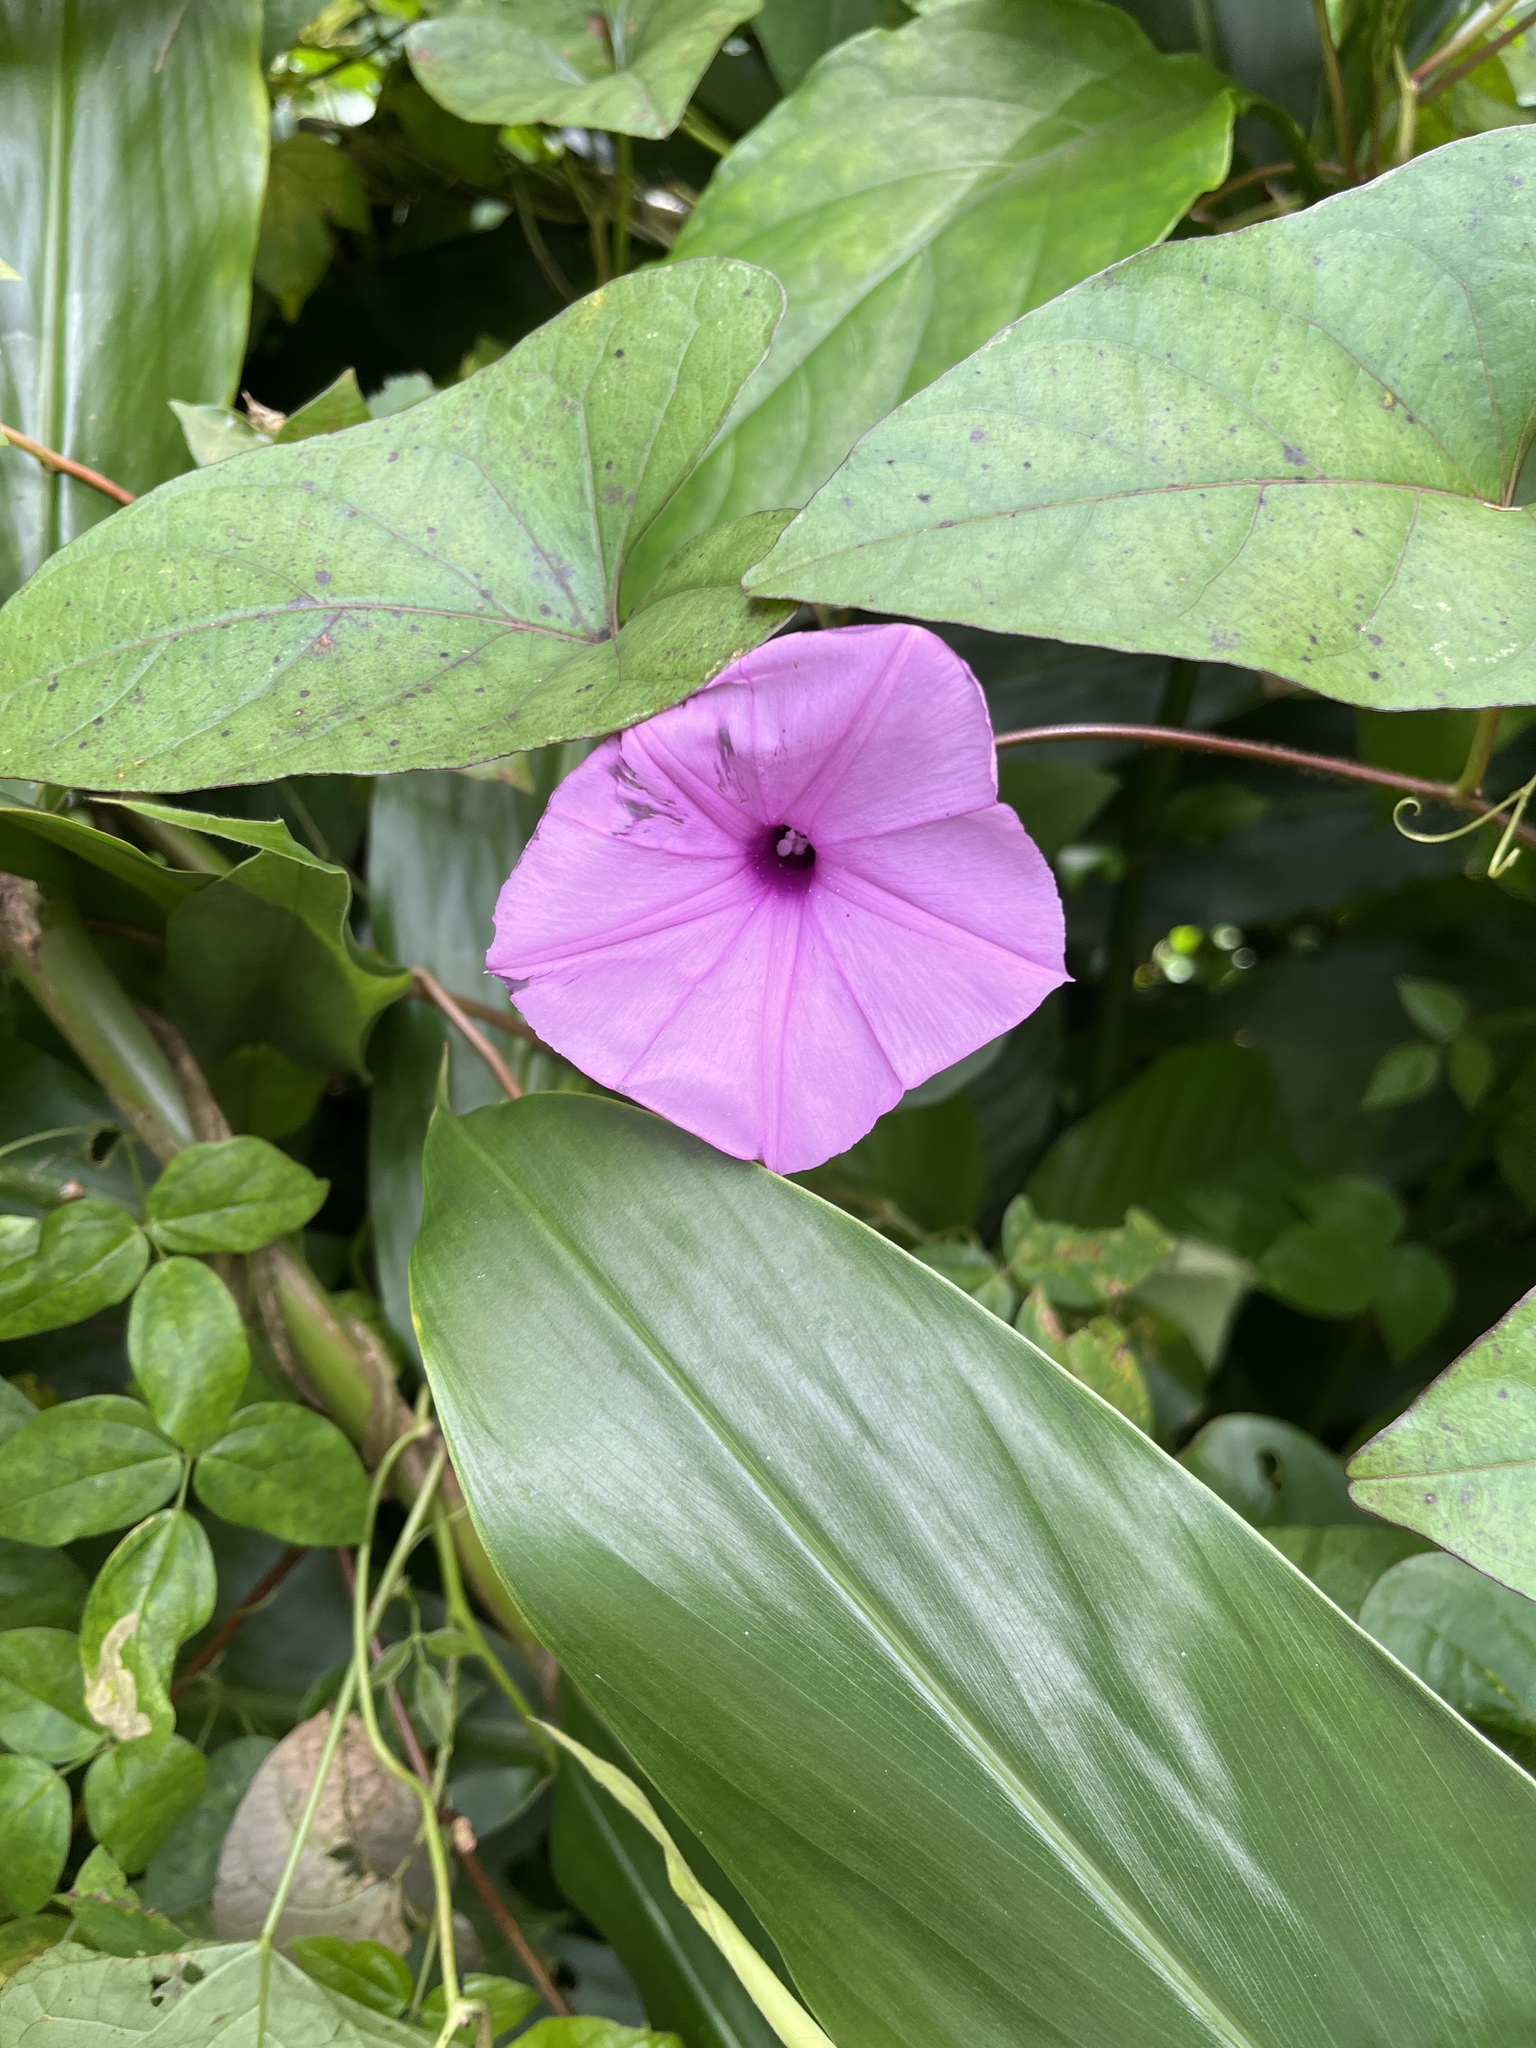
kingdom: Plantae
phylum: Tracheophyta
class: Magnoliopsida
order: Solanales
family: Convolvulaceae
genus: Ipomoea
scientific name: Ipomoea setifera
